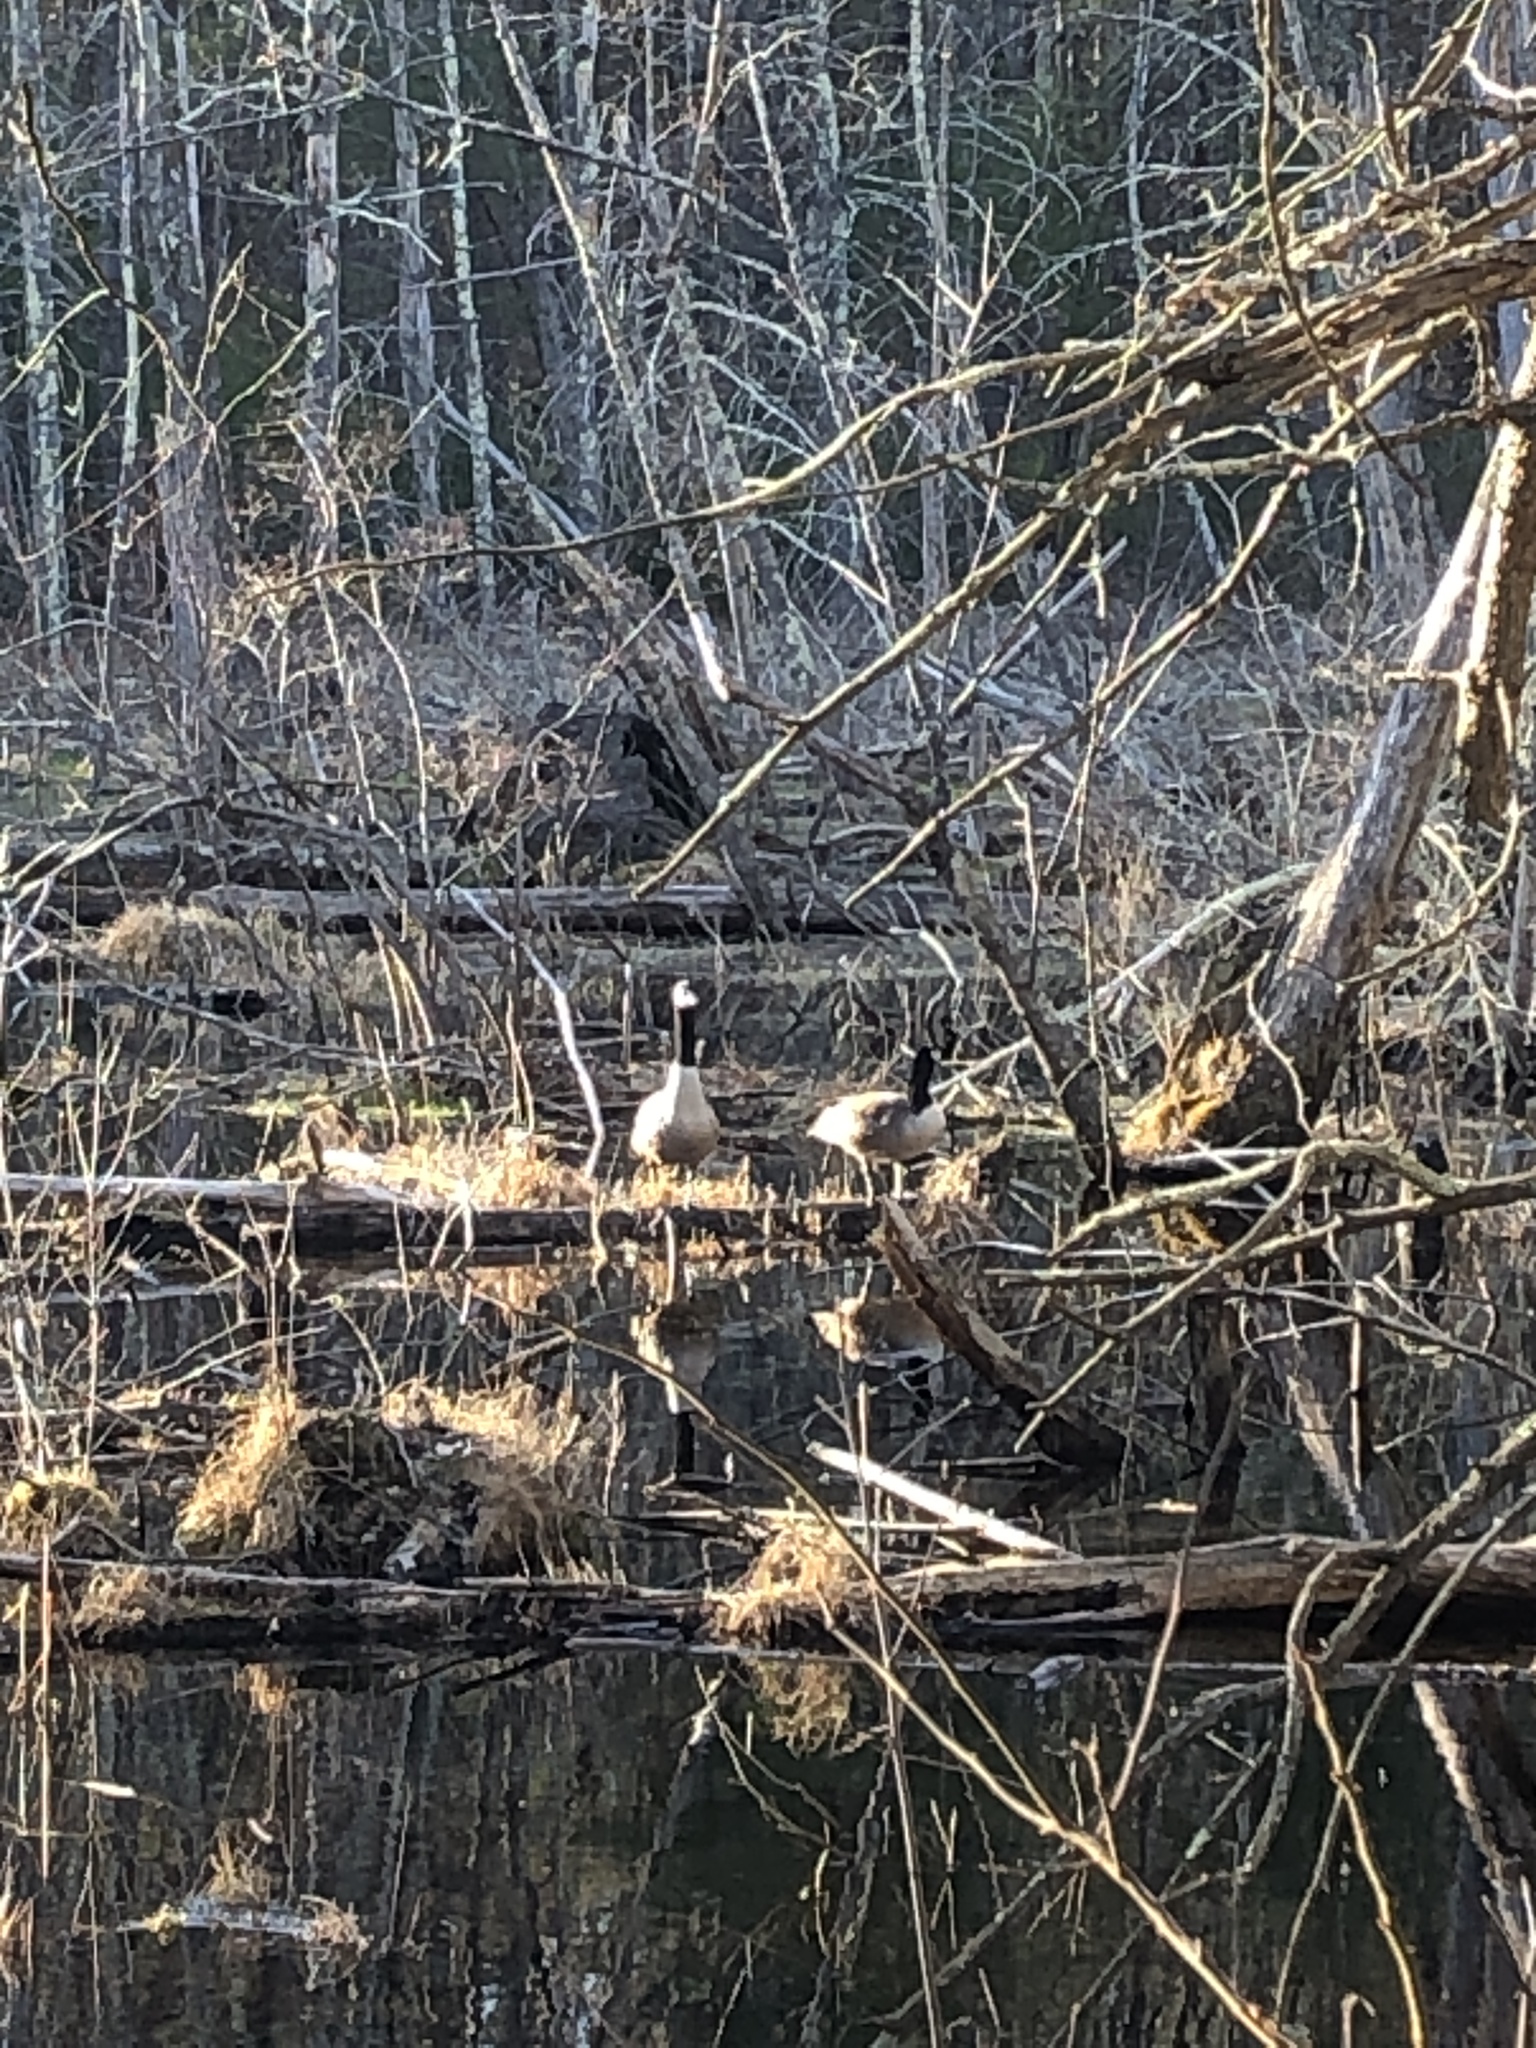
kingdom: Animalia
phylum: Chordata
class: Aves
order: Anseriformes
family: Anatidae
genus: Branta
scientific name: Branta canadensis
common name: Canada goose
